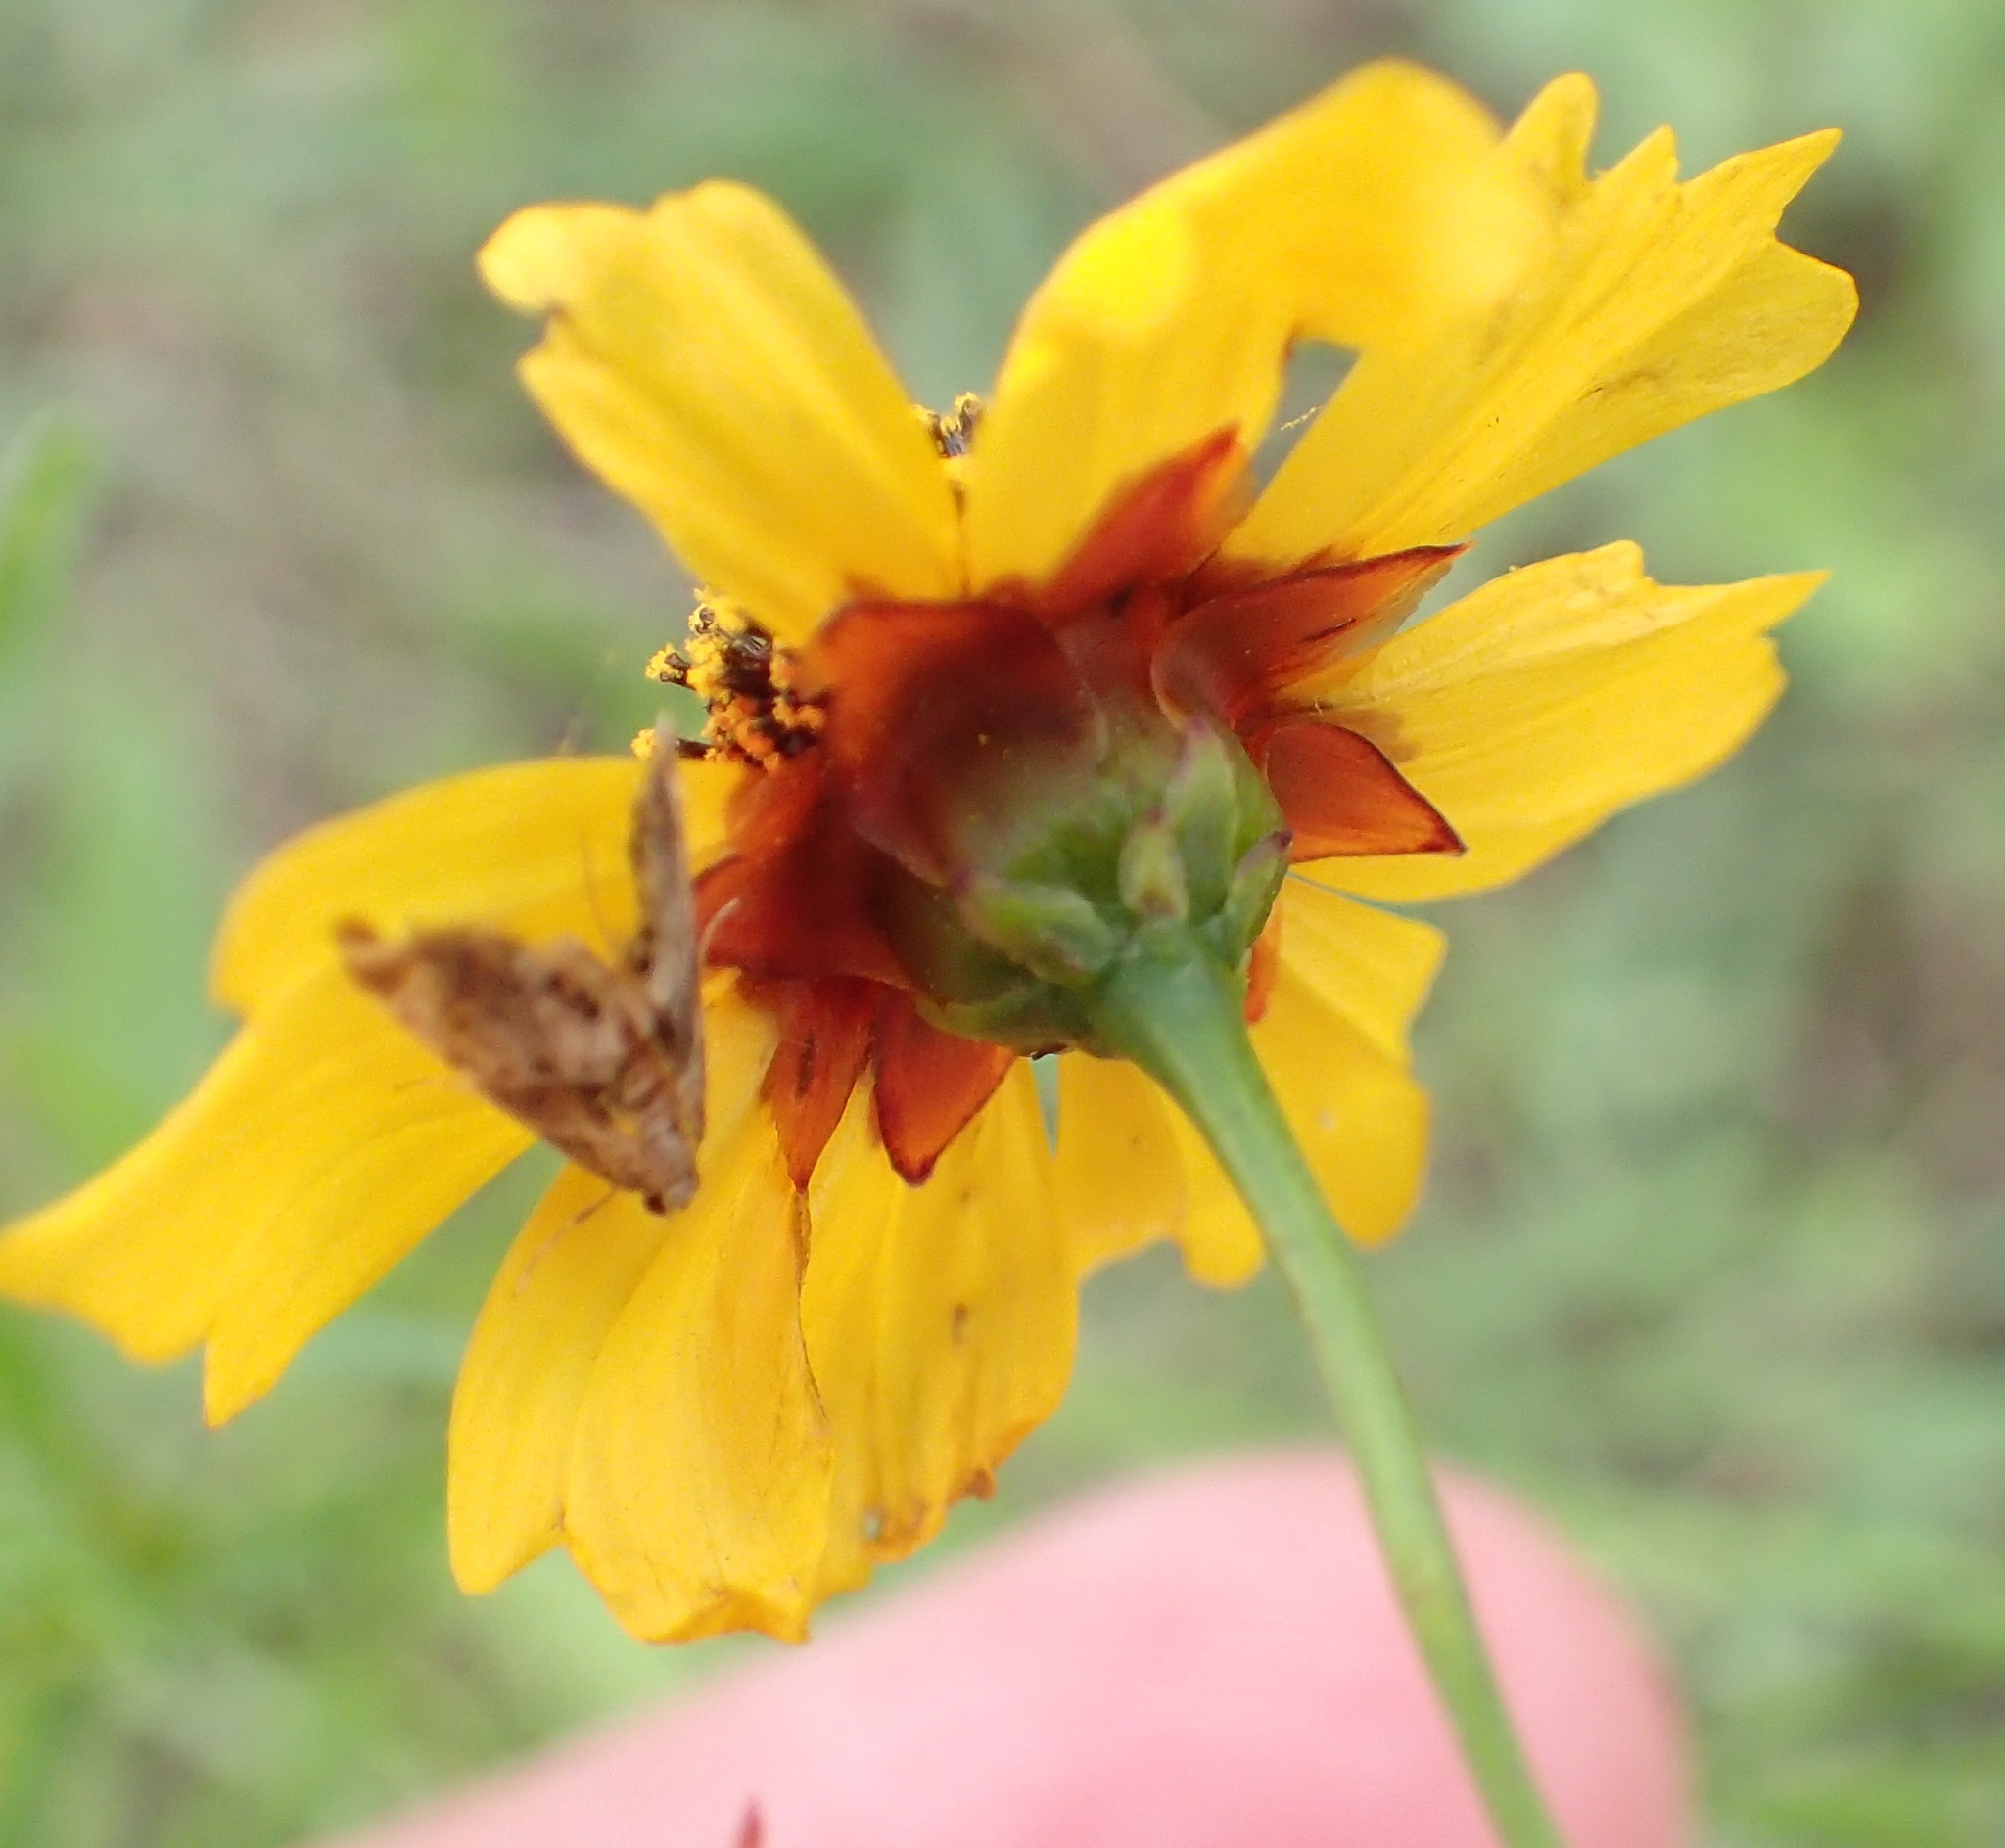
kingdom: Plantae
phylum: Tracheophyta
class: Magnoliopsida
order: Asterales
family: Asteraceae
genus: Coreopsis
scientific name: Coreopsis tinctoria
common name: Garden tickseed
